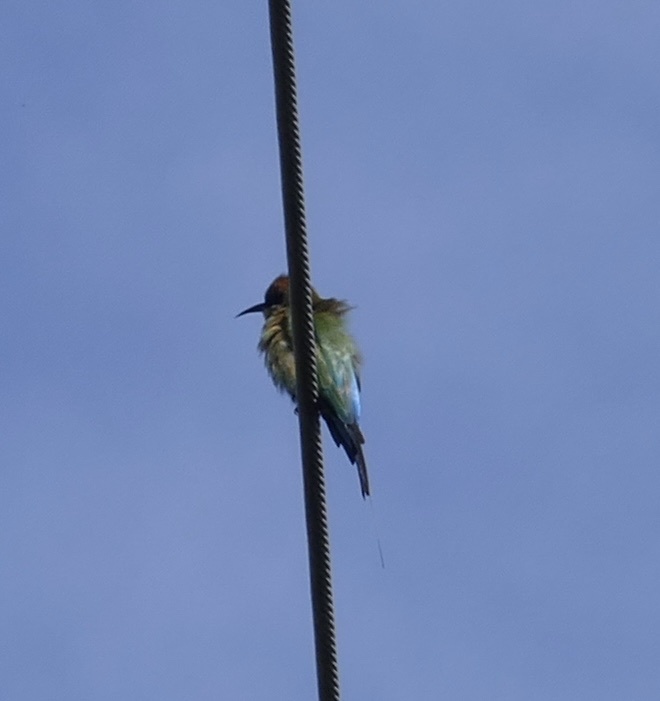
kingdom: Animalia
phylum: Chordata
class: Aves
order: Coraciiformes
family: Meropidae
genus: Merops
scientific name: Merops ornatus
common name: Rainbow bee-eater
